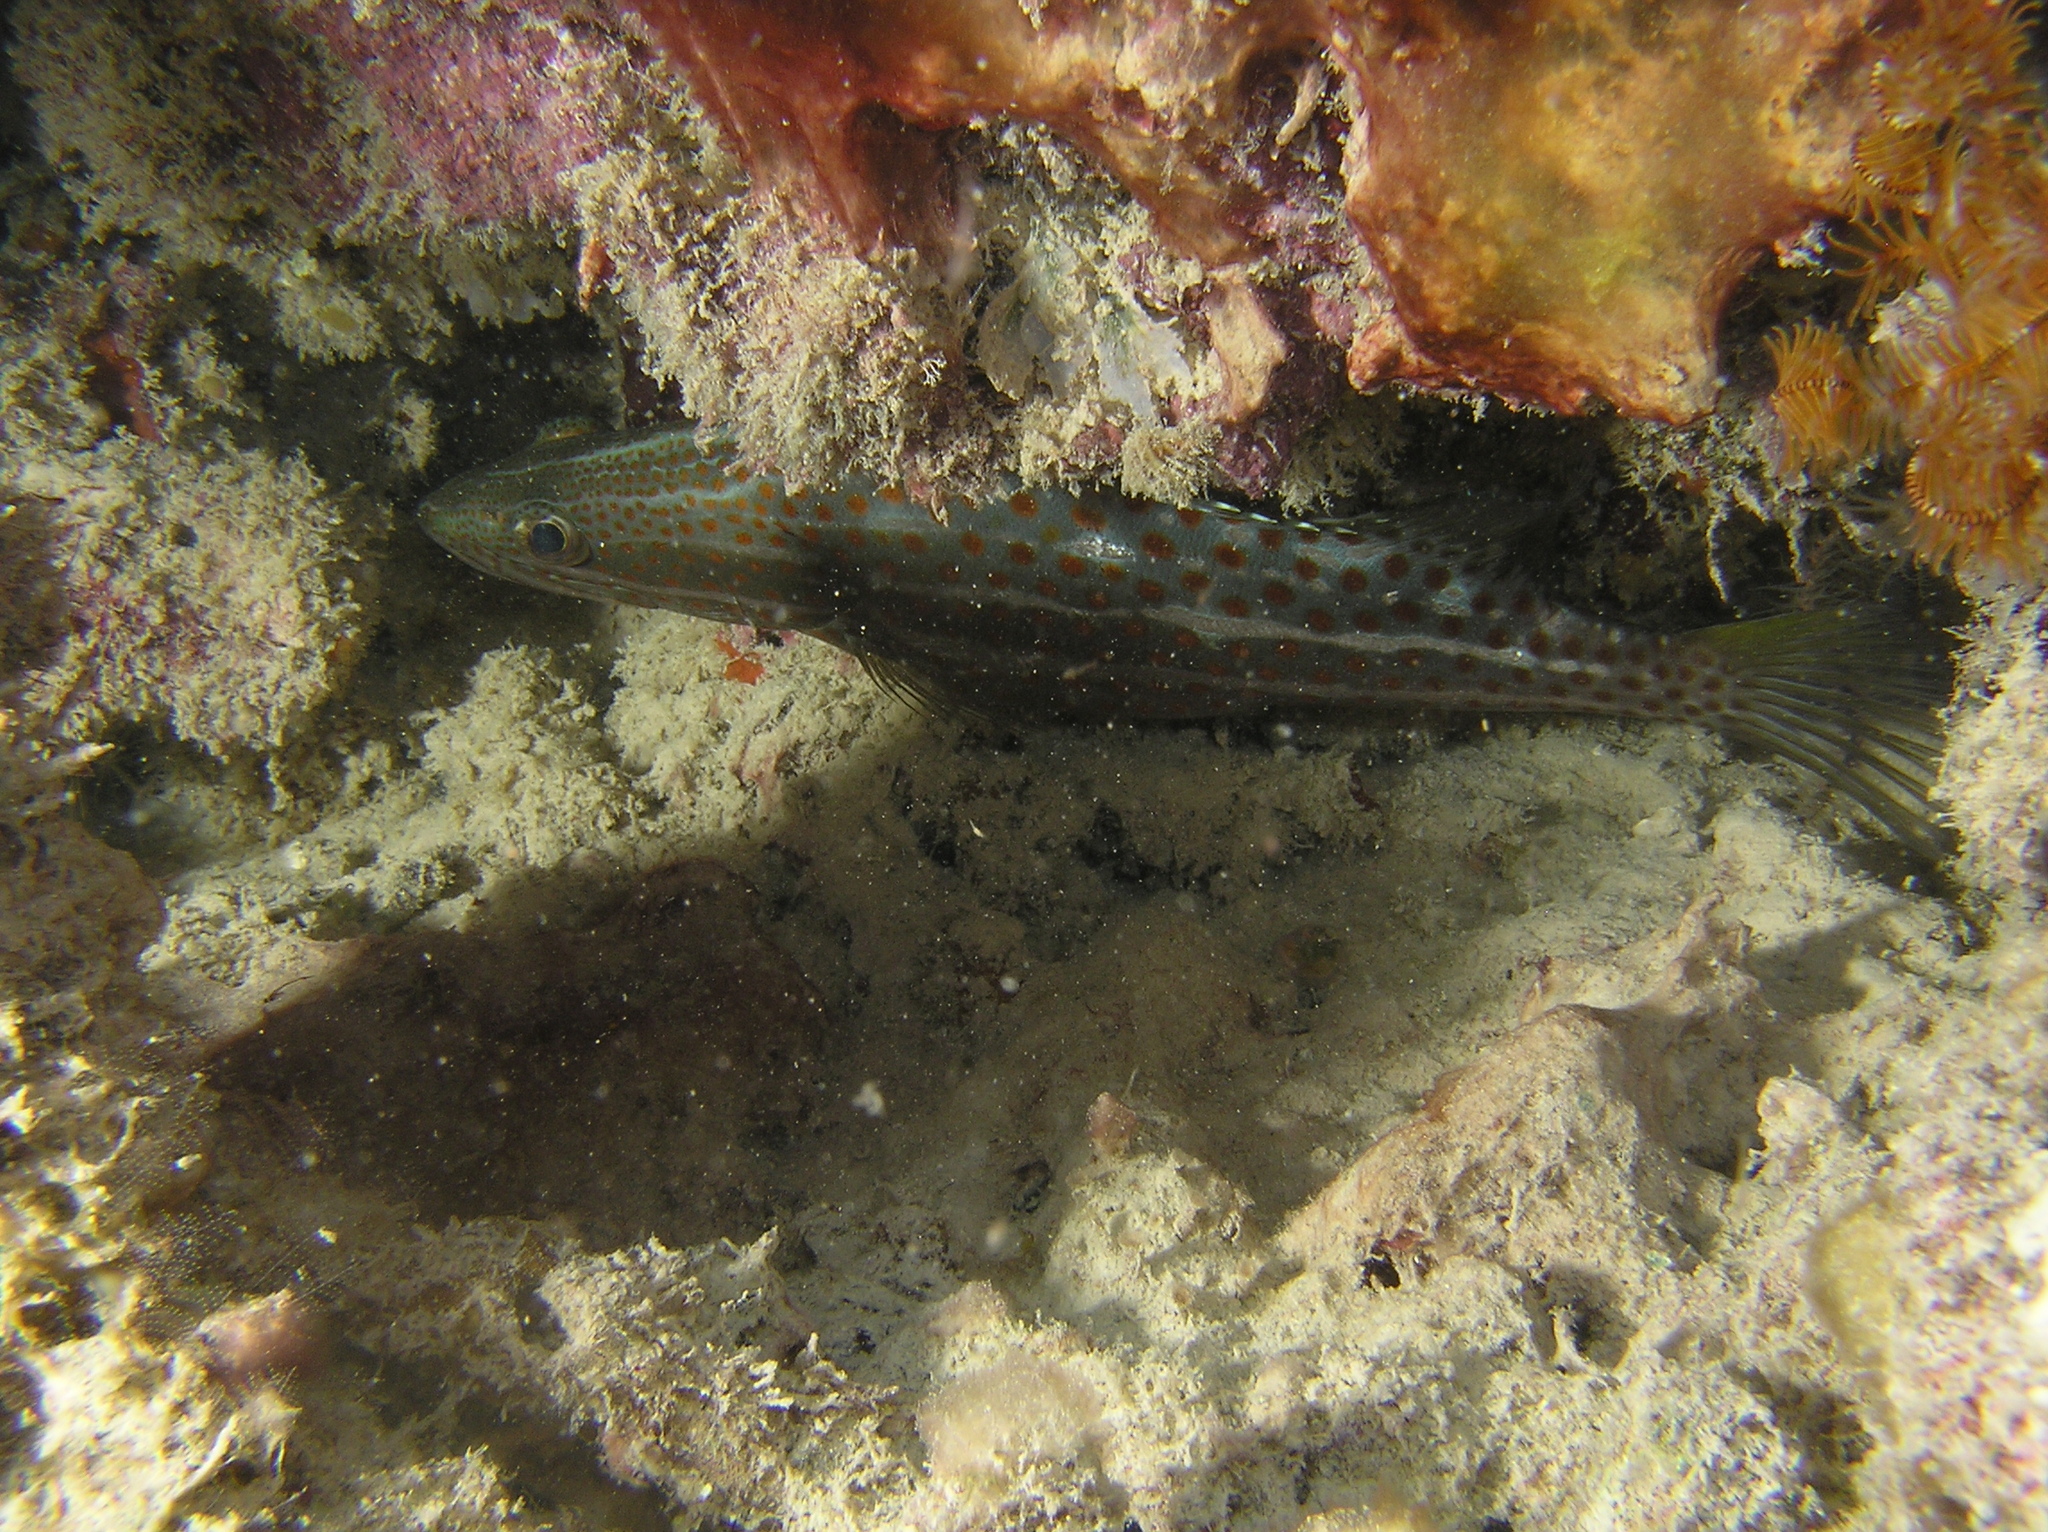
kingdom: Animalia
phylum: Chordata
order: Perciformes
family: Serranidae
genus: Anyperodon
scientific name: Anyperodon leucogrammicus
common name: Slender grouper
